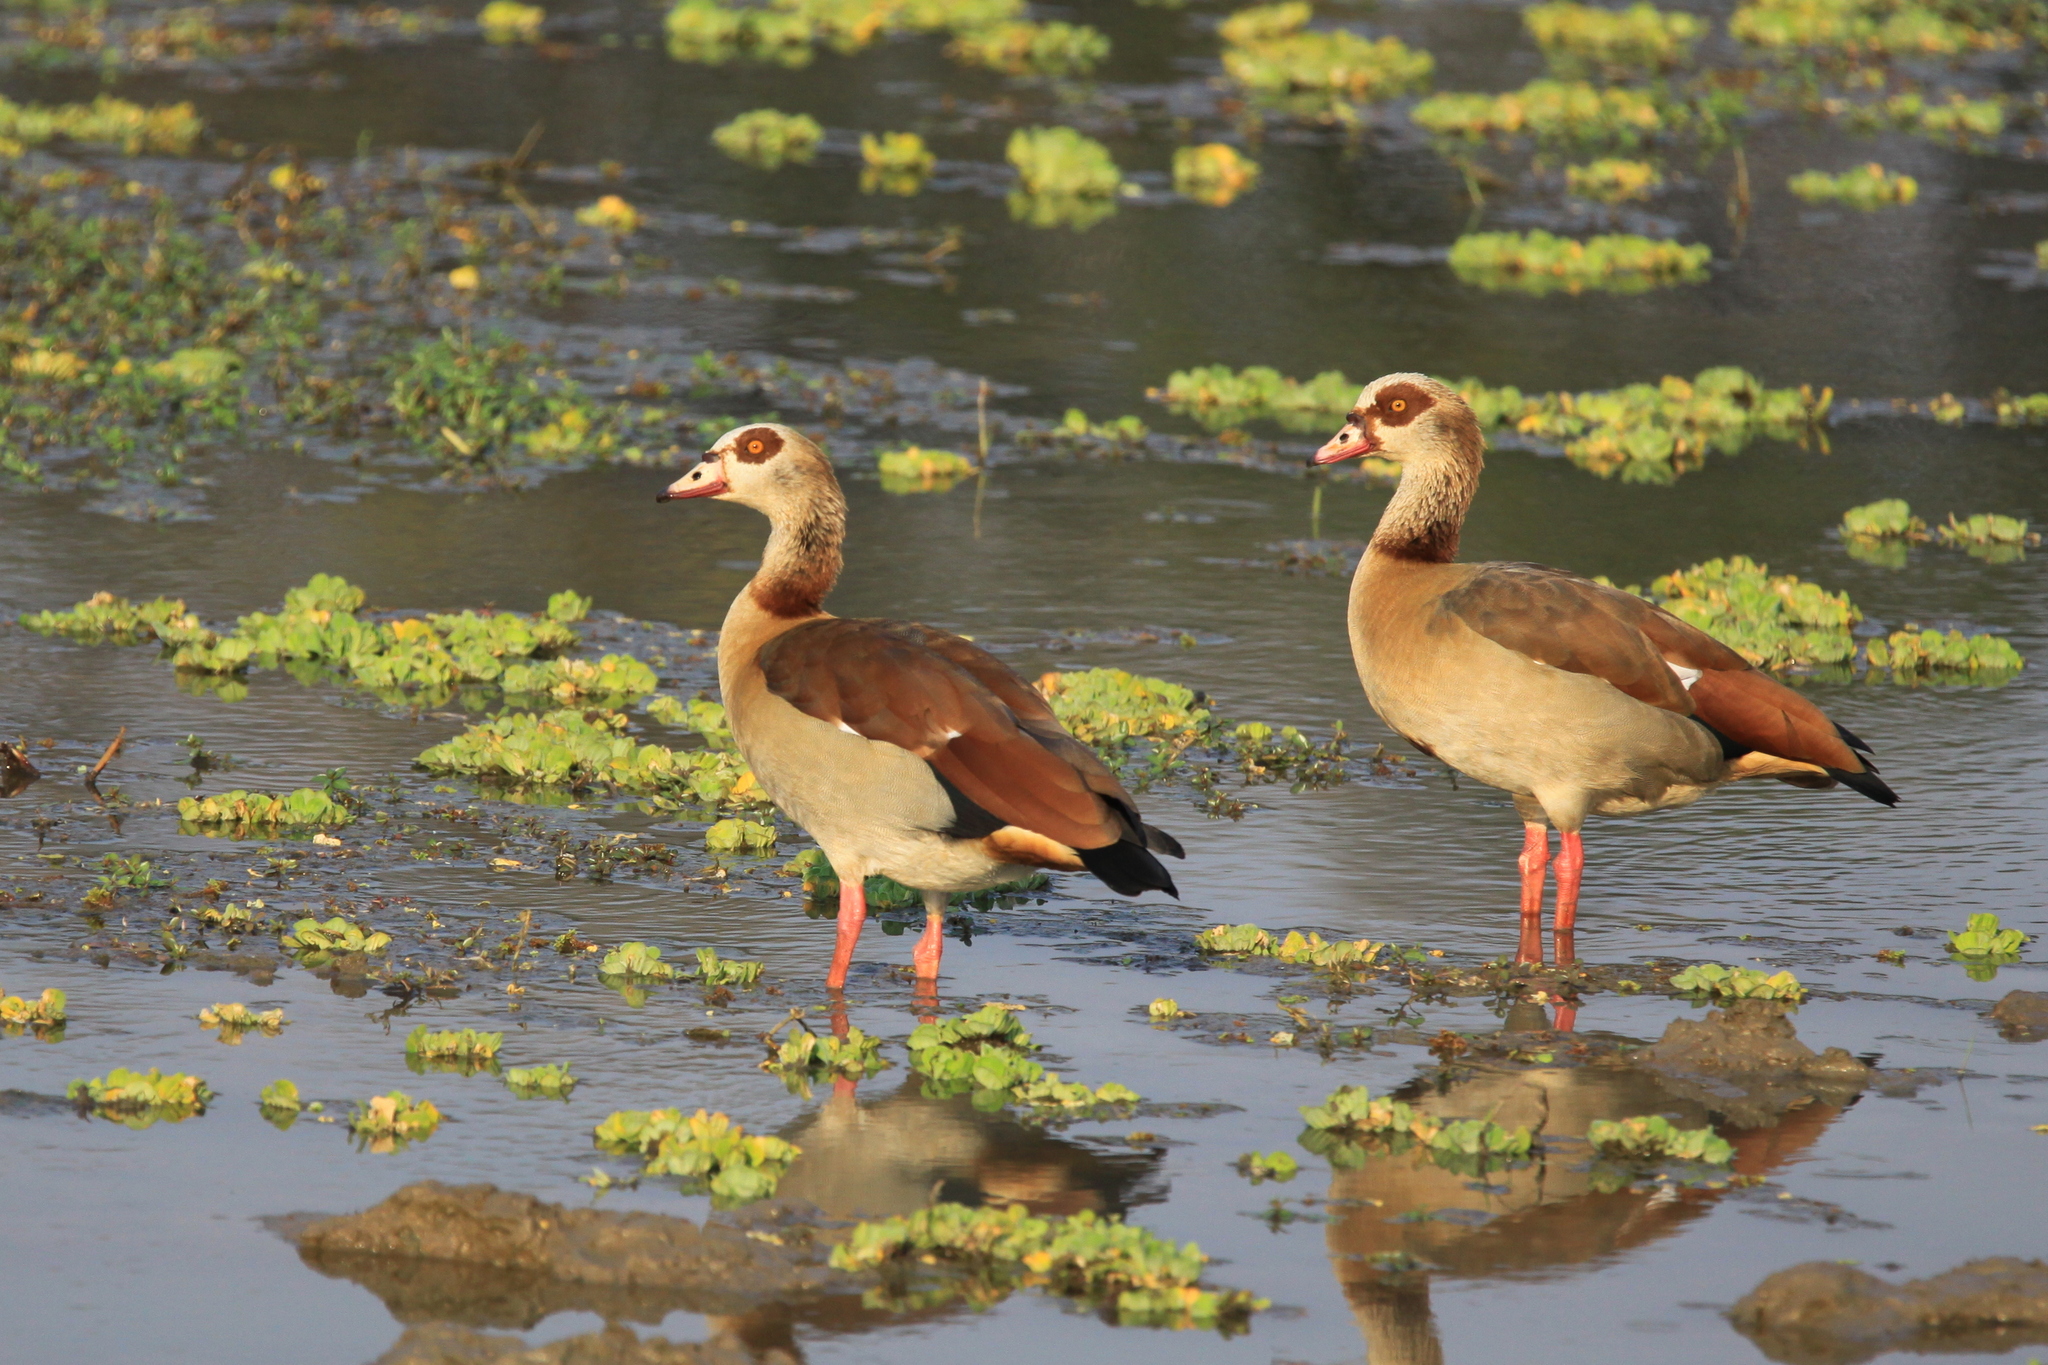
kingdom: Animalia
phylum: Chordata
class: Aves
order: Anseriformes
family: Anatidae
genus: Alopochen
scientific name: Alopochen aegyptiaca
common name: Egyptian goose
